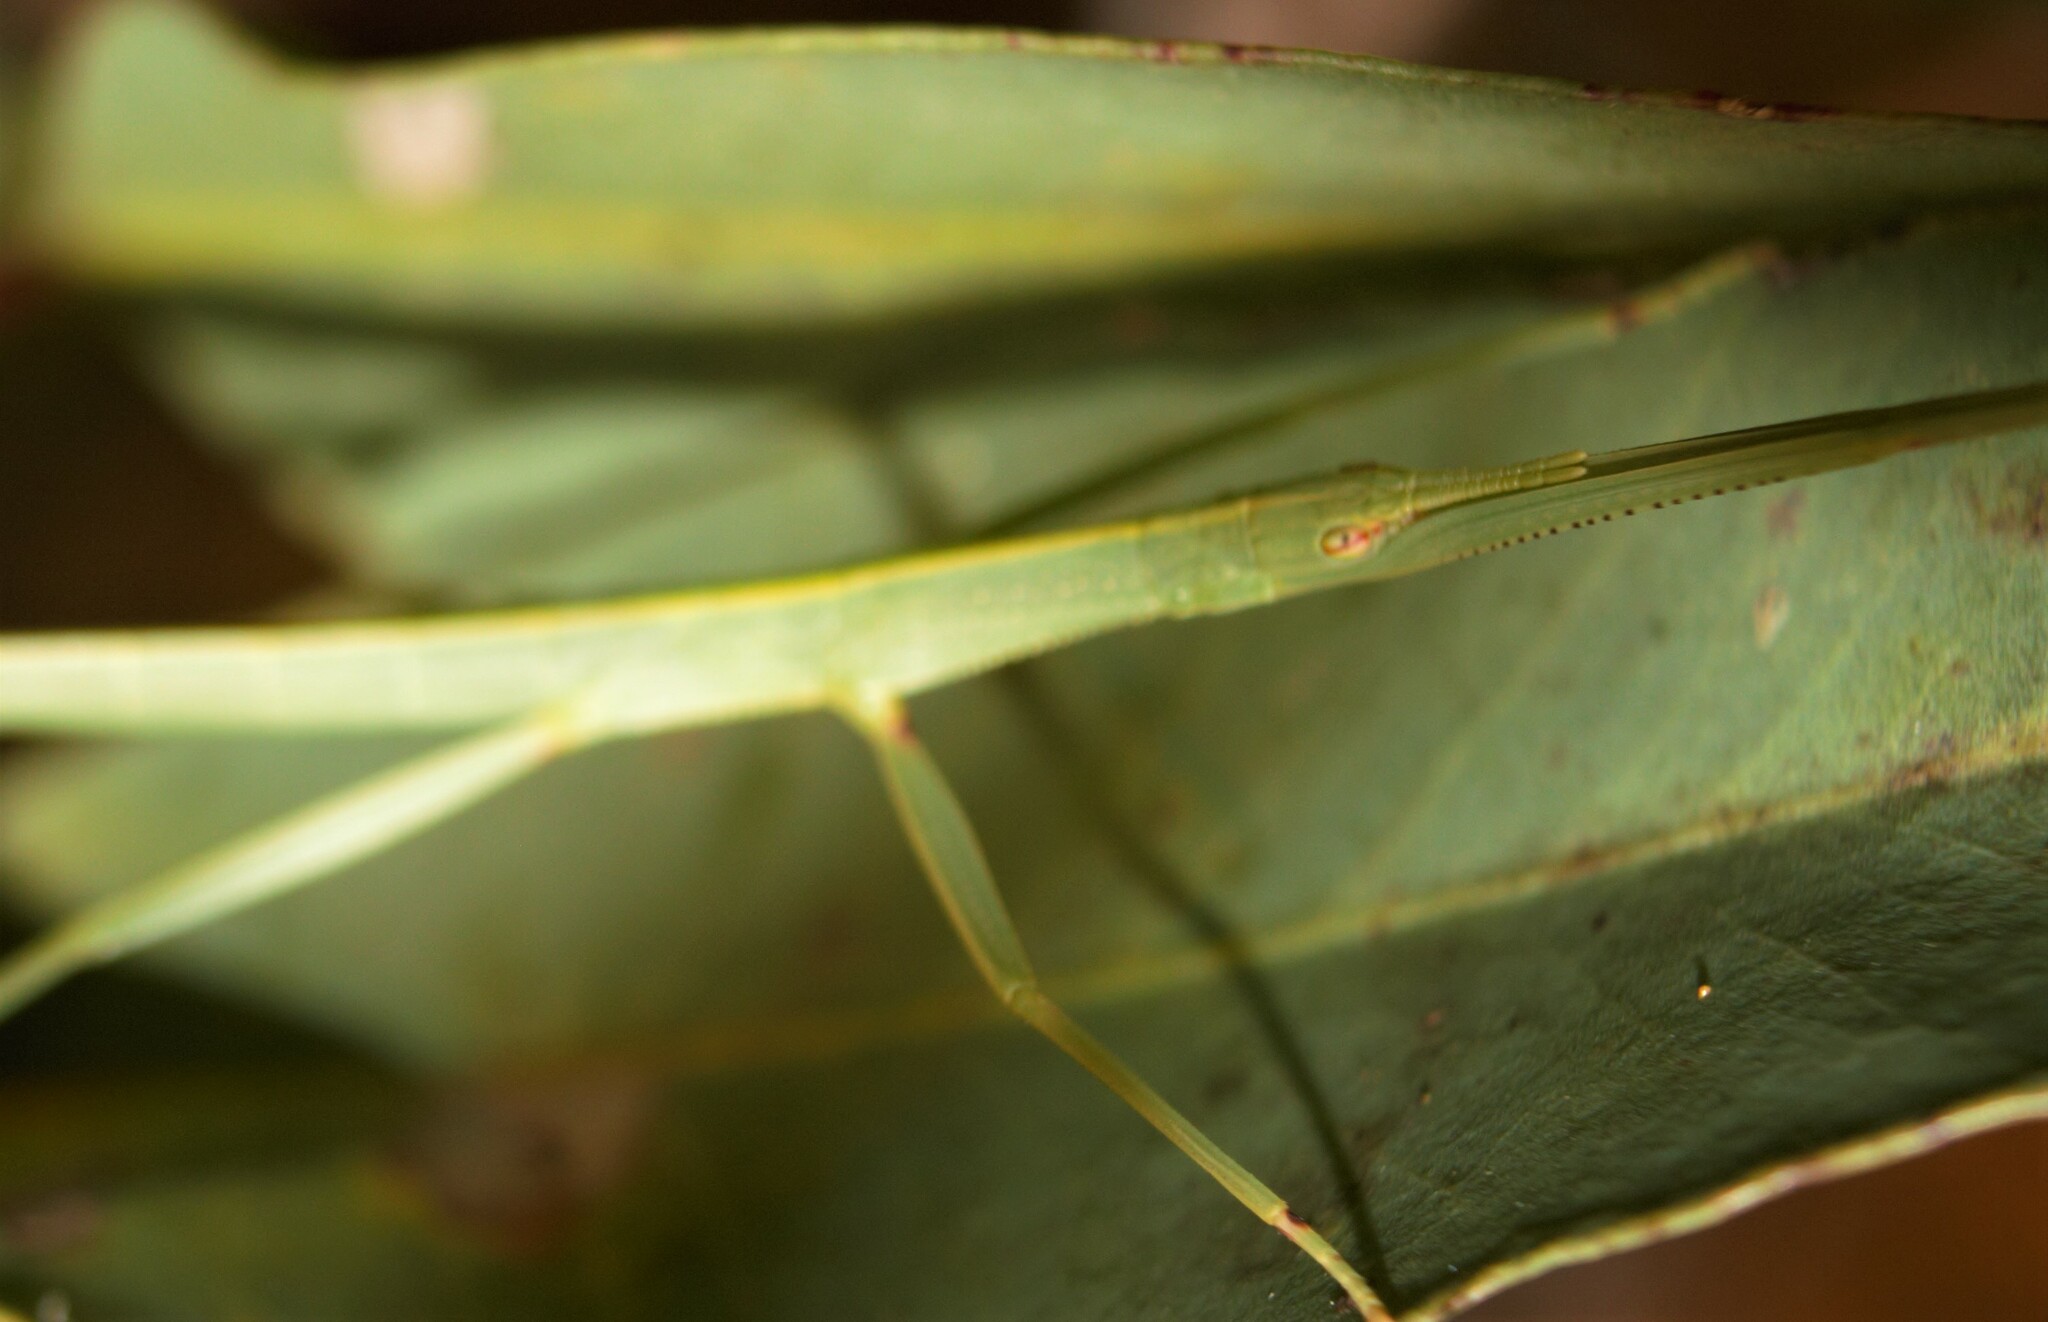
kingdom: Animalia
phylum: Arthropoda
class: Insecta
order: Phasmida
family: Phasmatidae
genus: Tropidoderus
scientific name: Tropidoderus childrenii
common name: Children's stick insect
